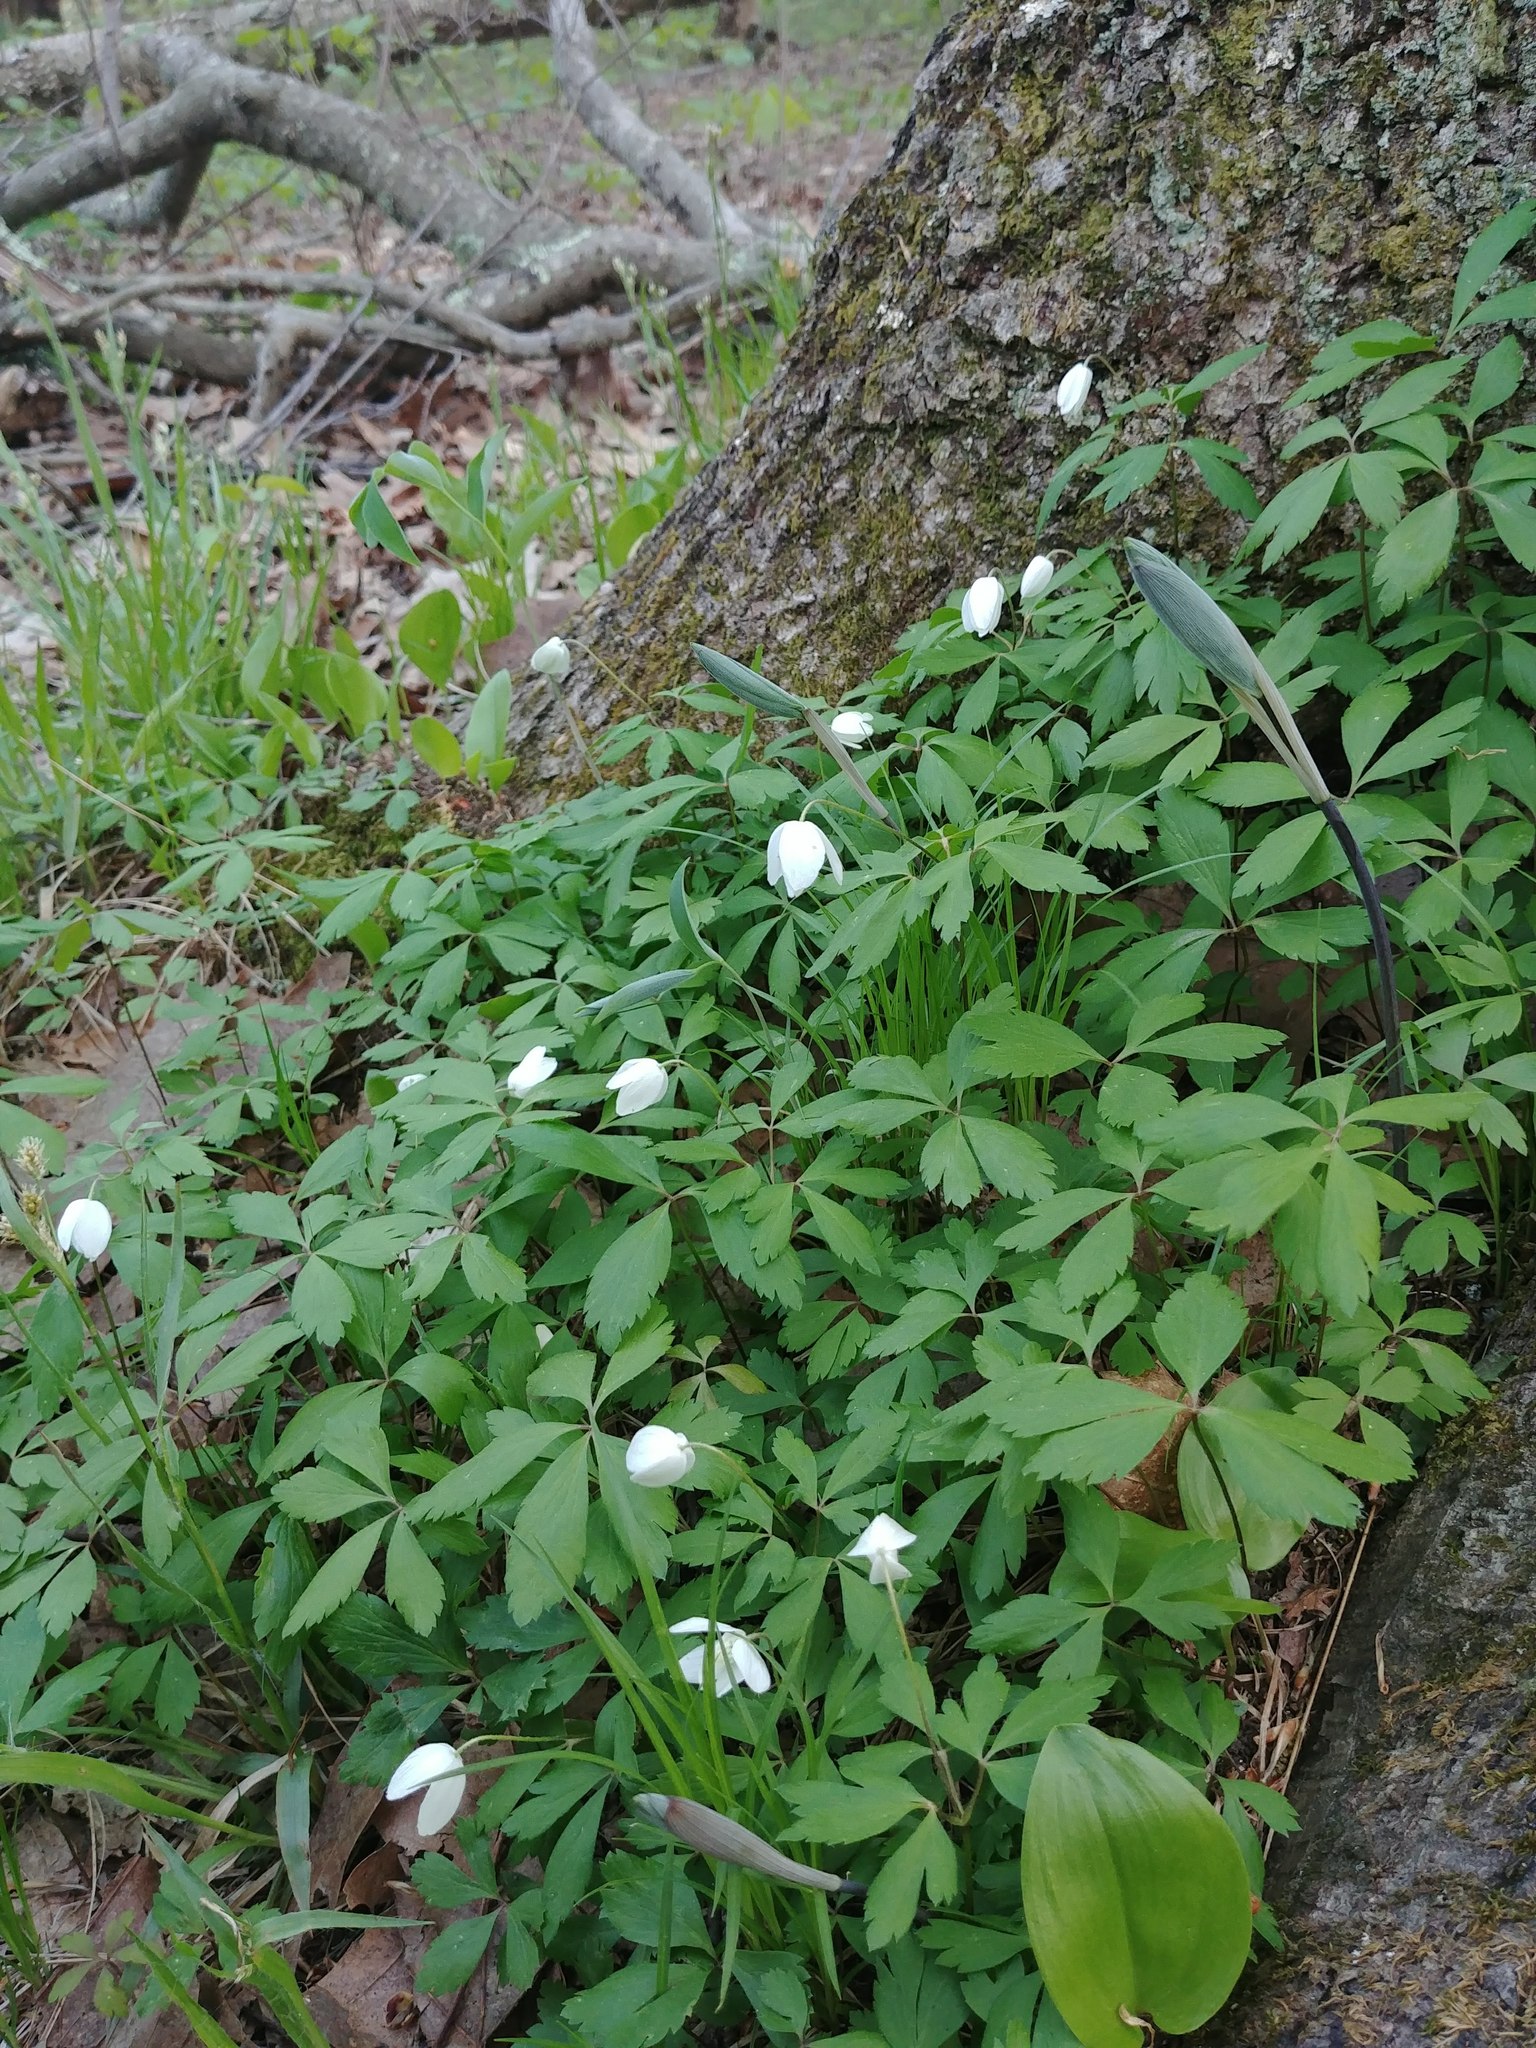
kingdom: Plantae
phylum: Tracheophyta
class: Magnoliopsida
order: Ranunculales
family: Ranunculaceae
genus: Anemone
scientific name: Anemone quinquefolia
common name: Wood anemone
